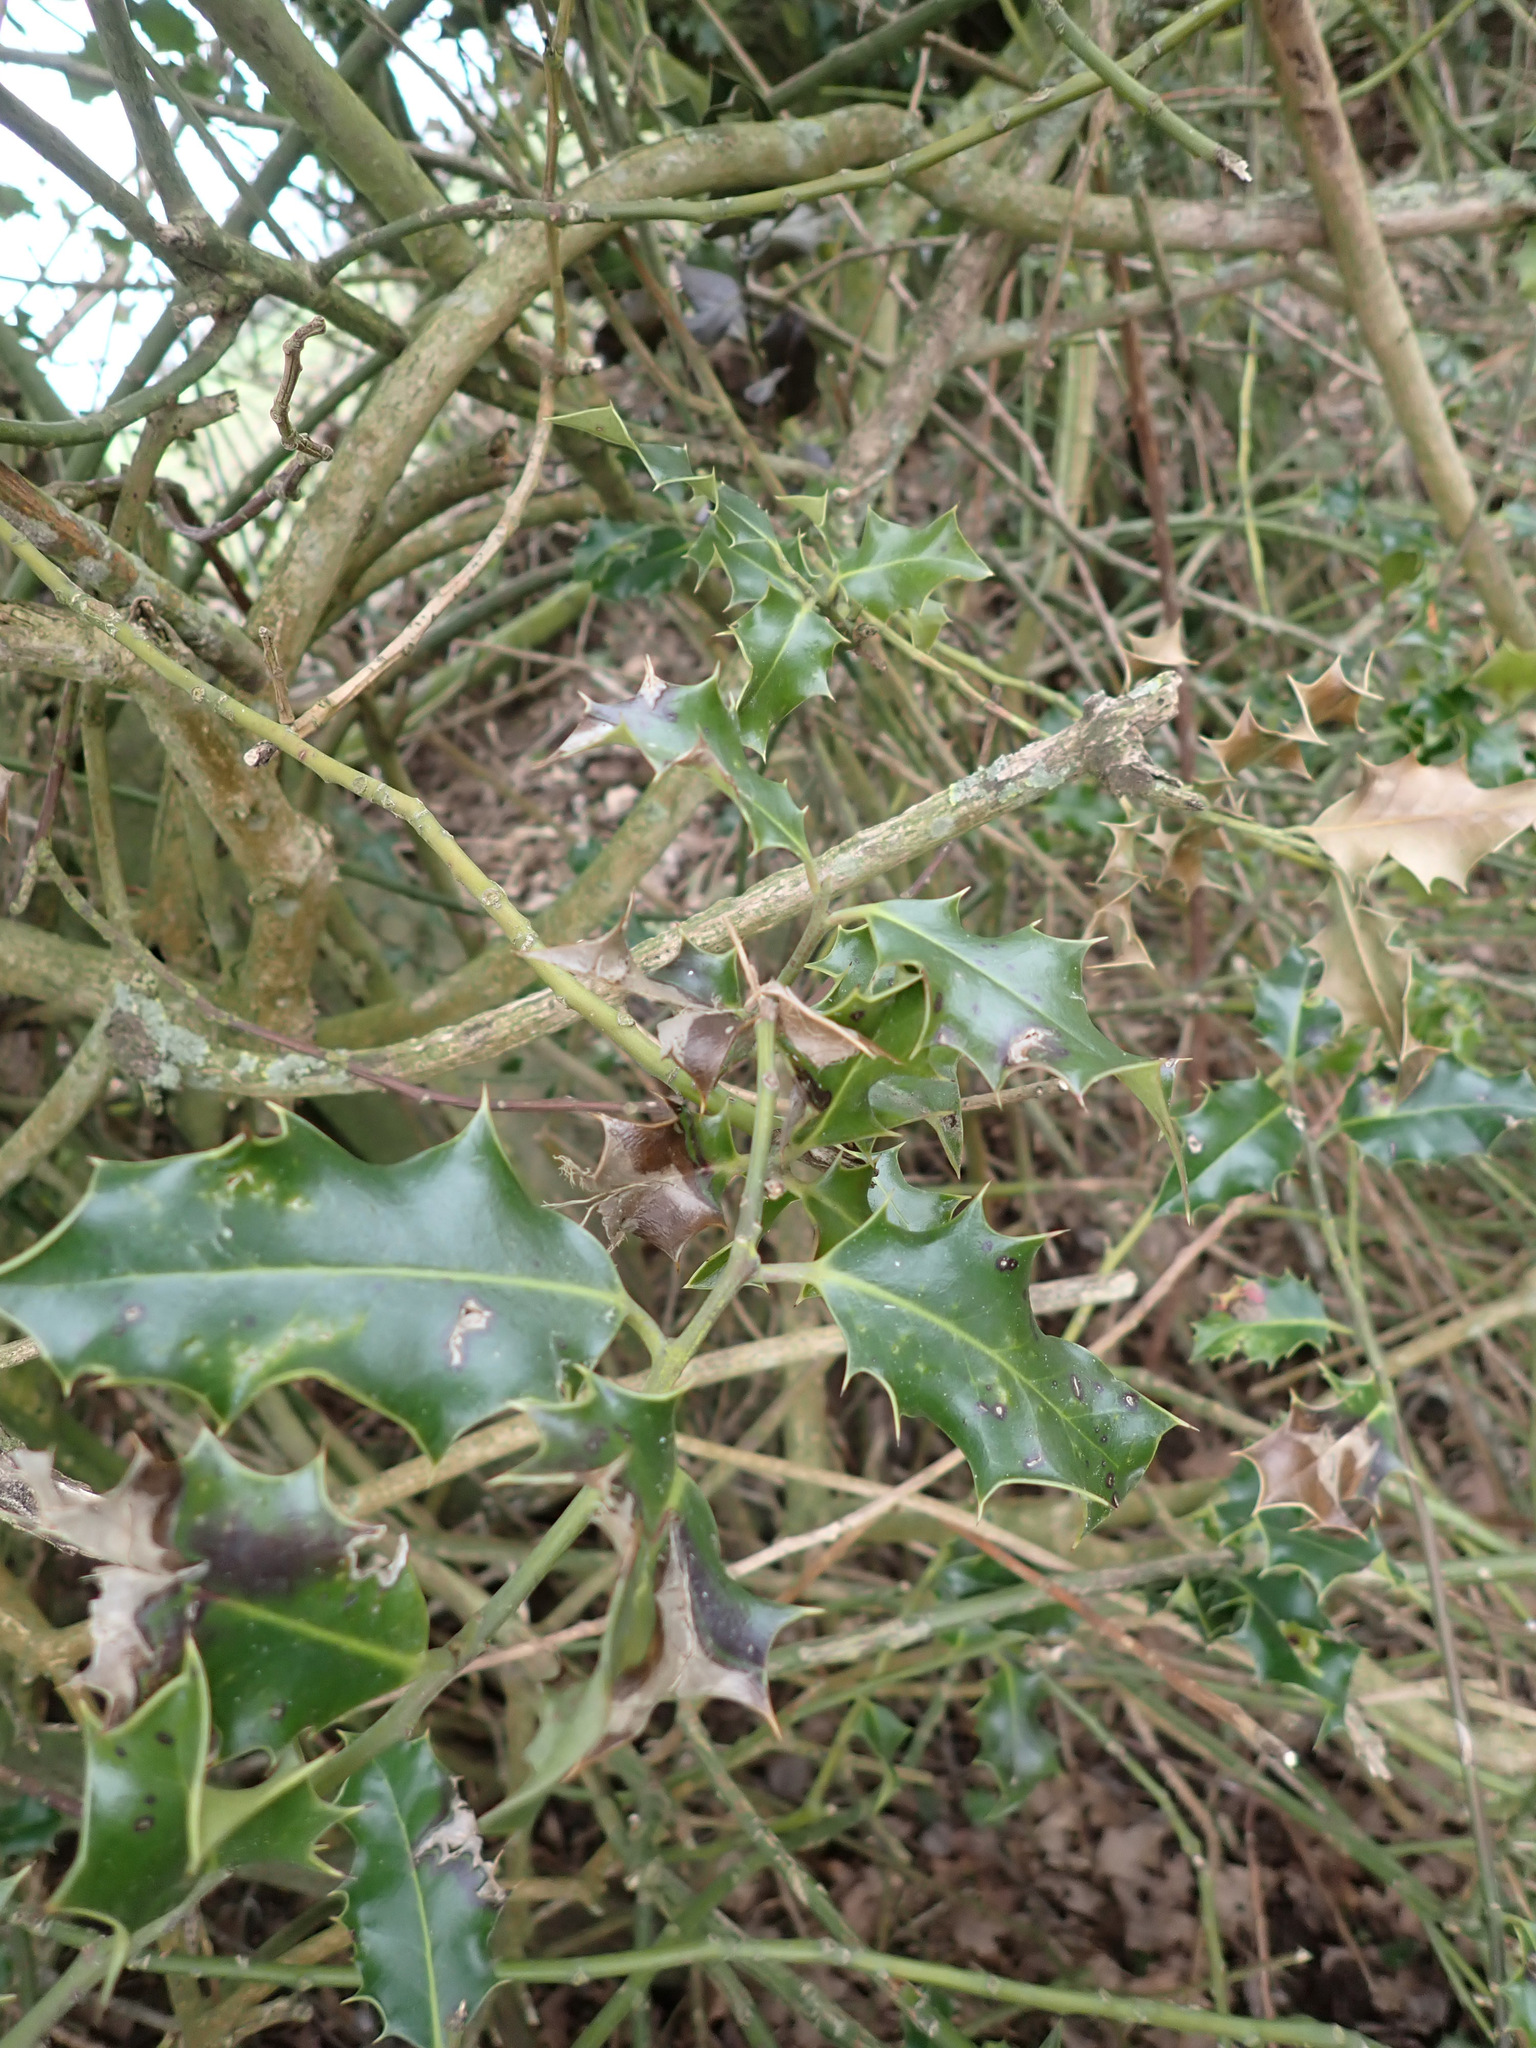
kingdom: Plantae
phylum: Tracheophyta
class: Magnoliopsida
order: Aquifoliales
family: Aquifoliaceae
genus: Ilex
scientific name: Ilex aquifolium
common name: English holly
